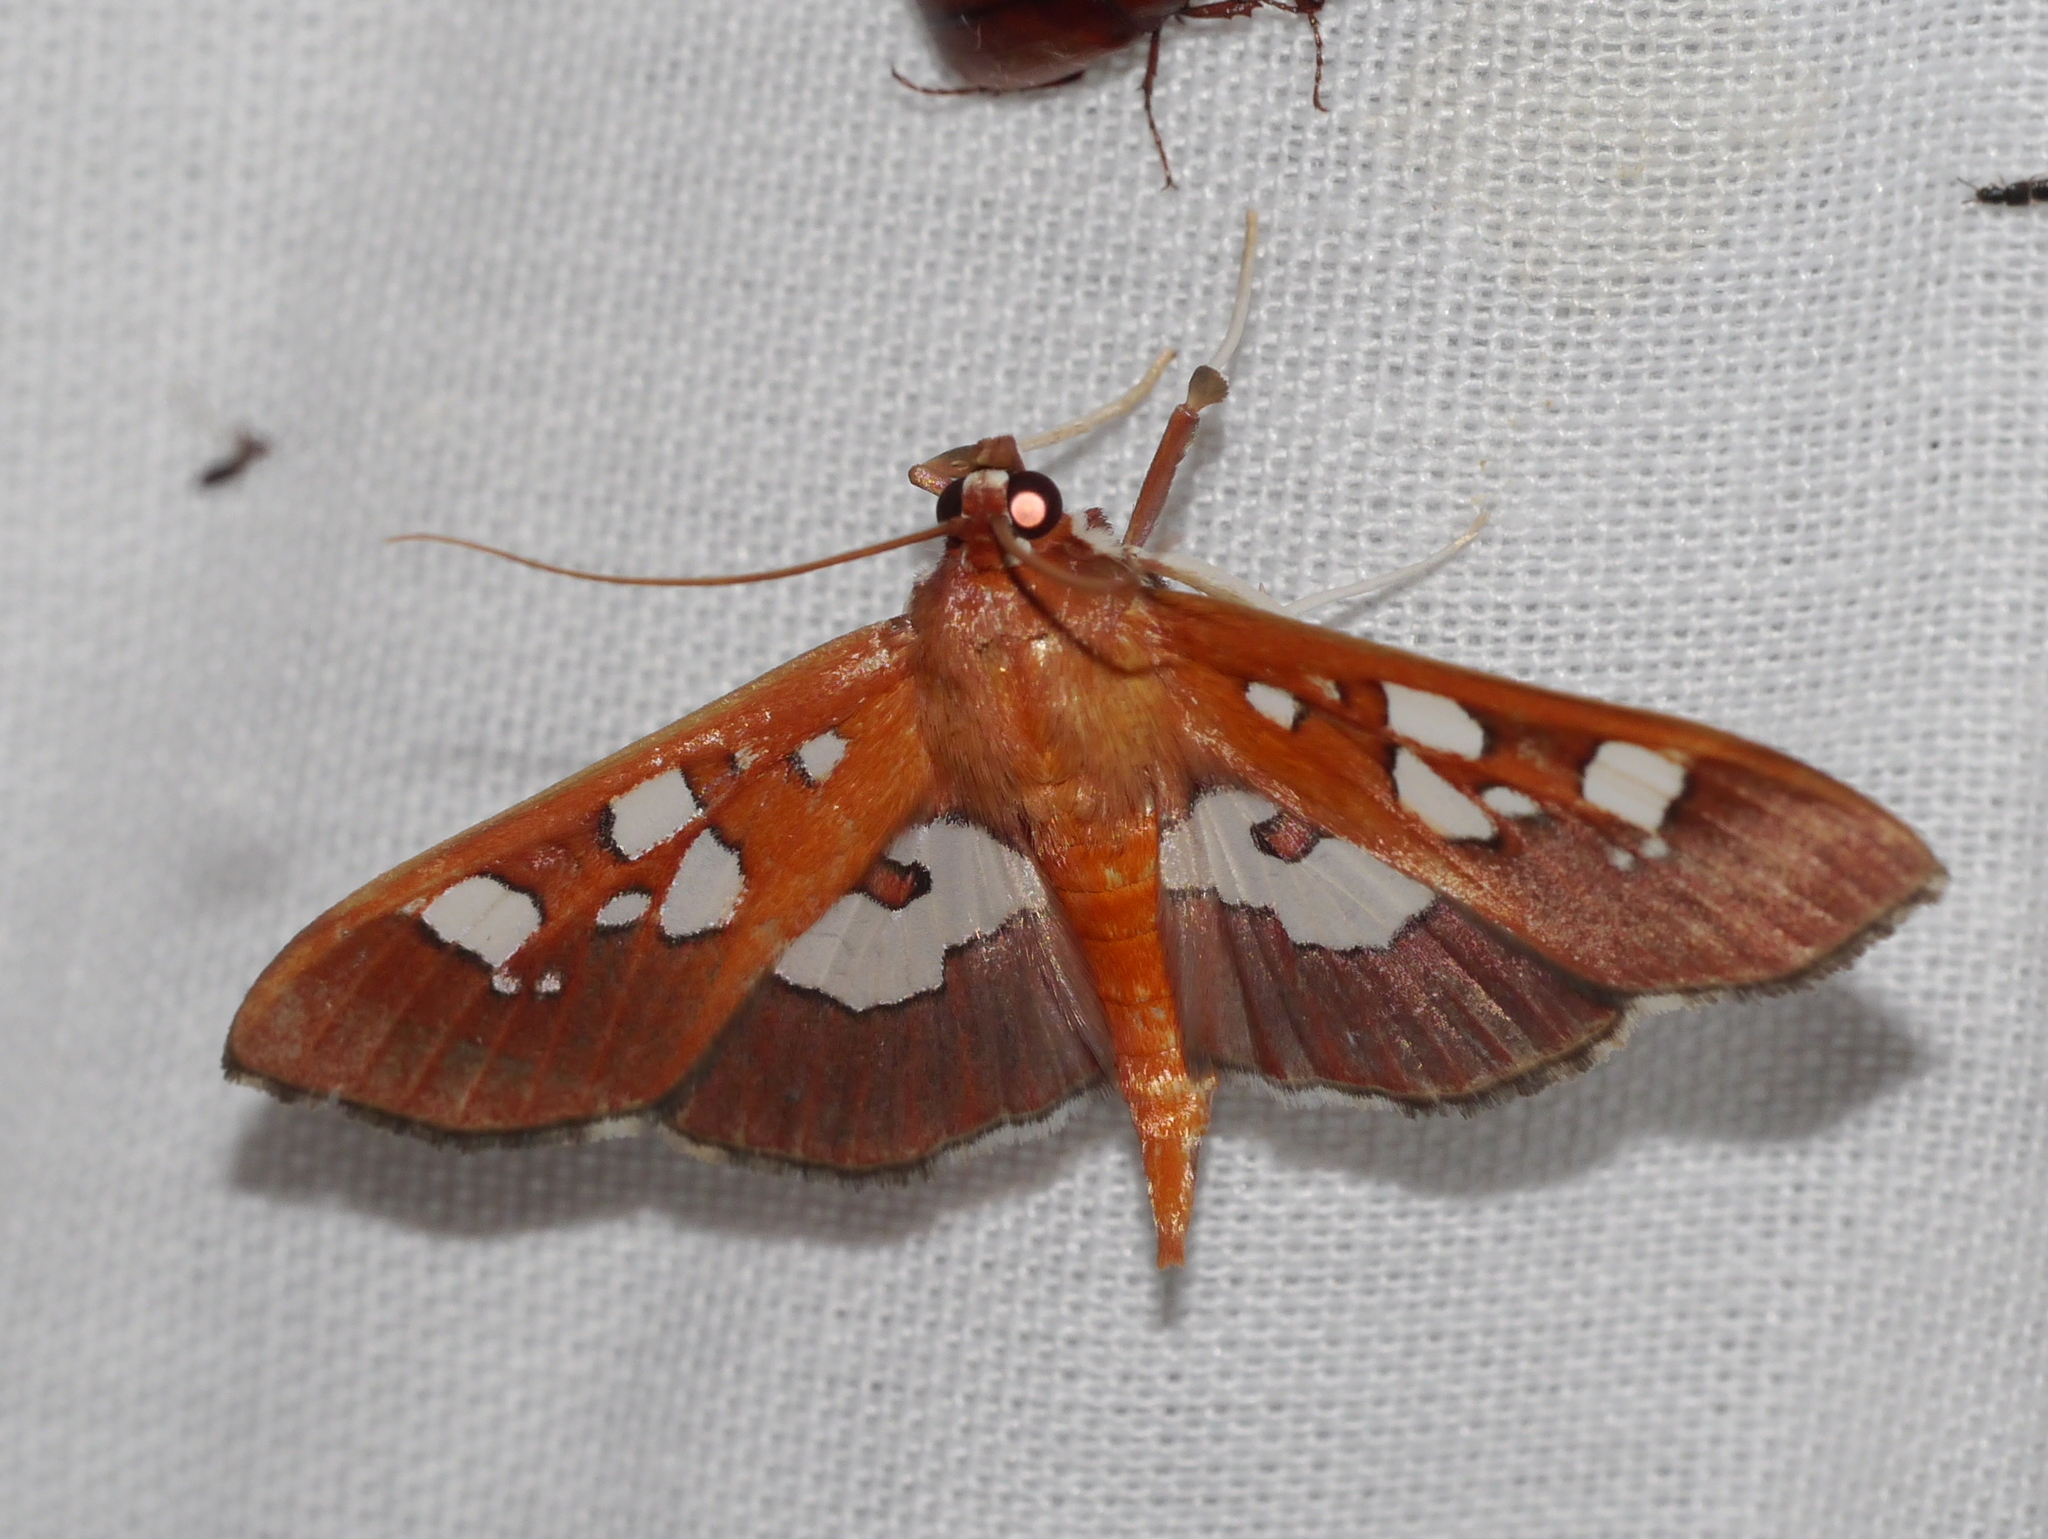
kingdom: Animalia
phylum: Arthropoda
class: Insecta
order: Lepidoptera
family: Crambidae
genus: Phostria
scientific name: Phostria tedea
